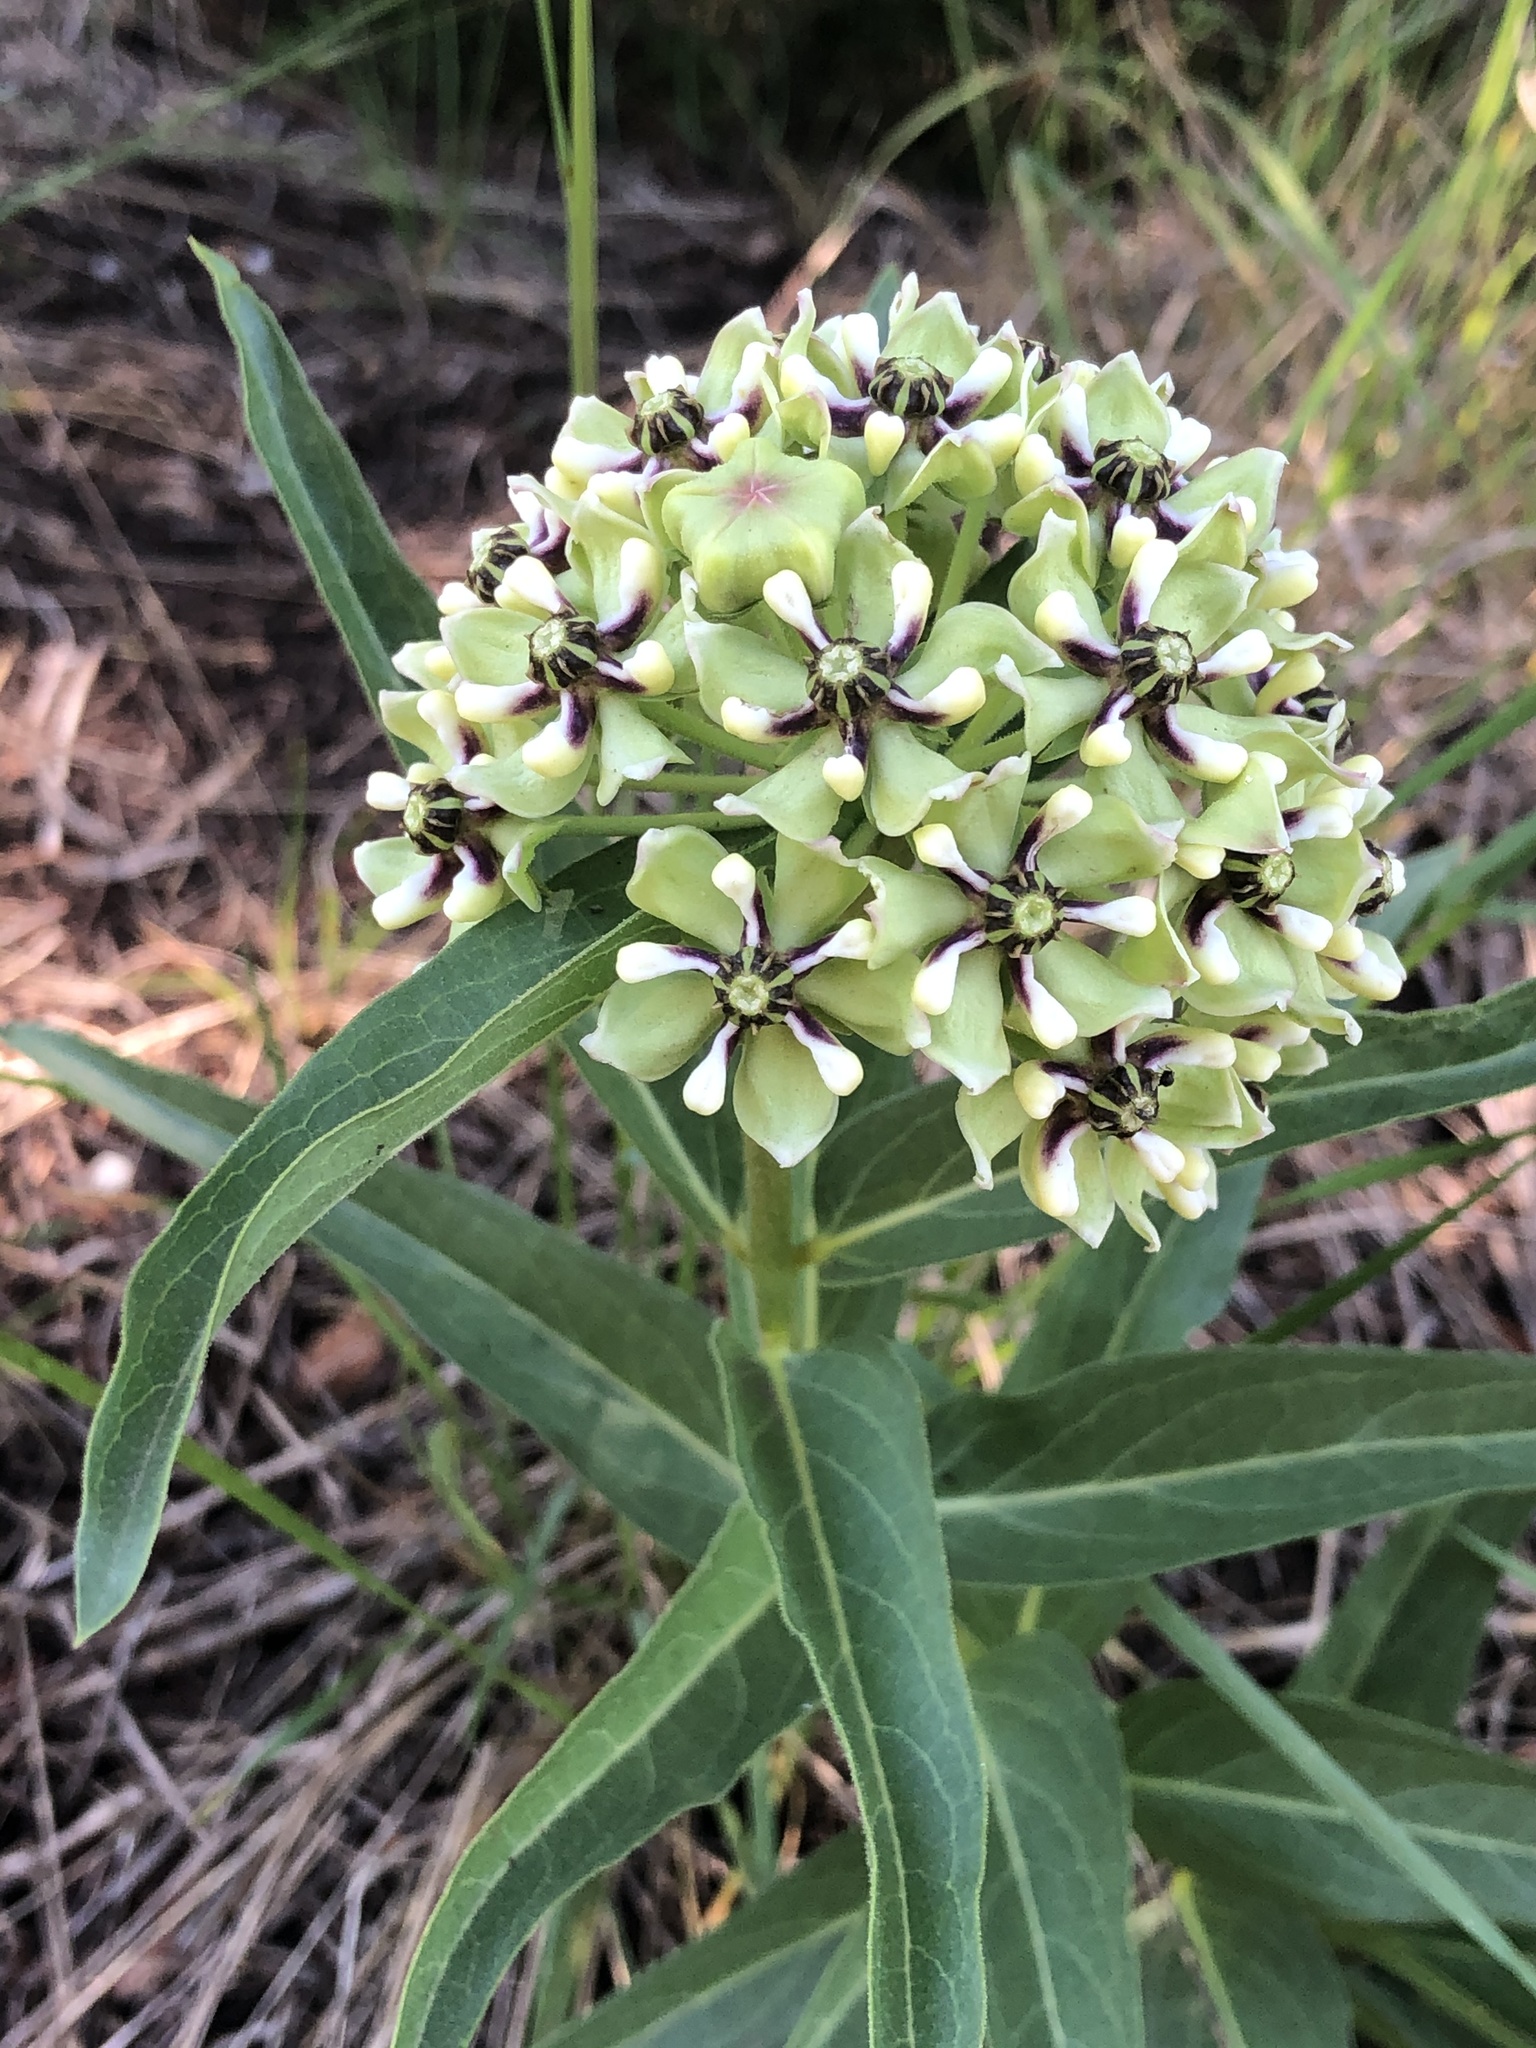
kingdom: Plantae
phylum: Tracheophyta
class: Magnoliopsida
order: Gentianales
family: Apocynaceae
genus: Asclepias
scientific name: Asclepias asperula
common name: Antelope horns
